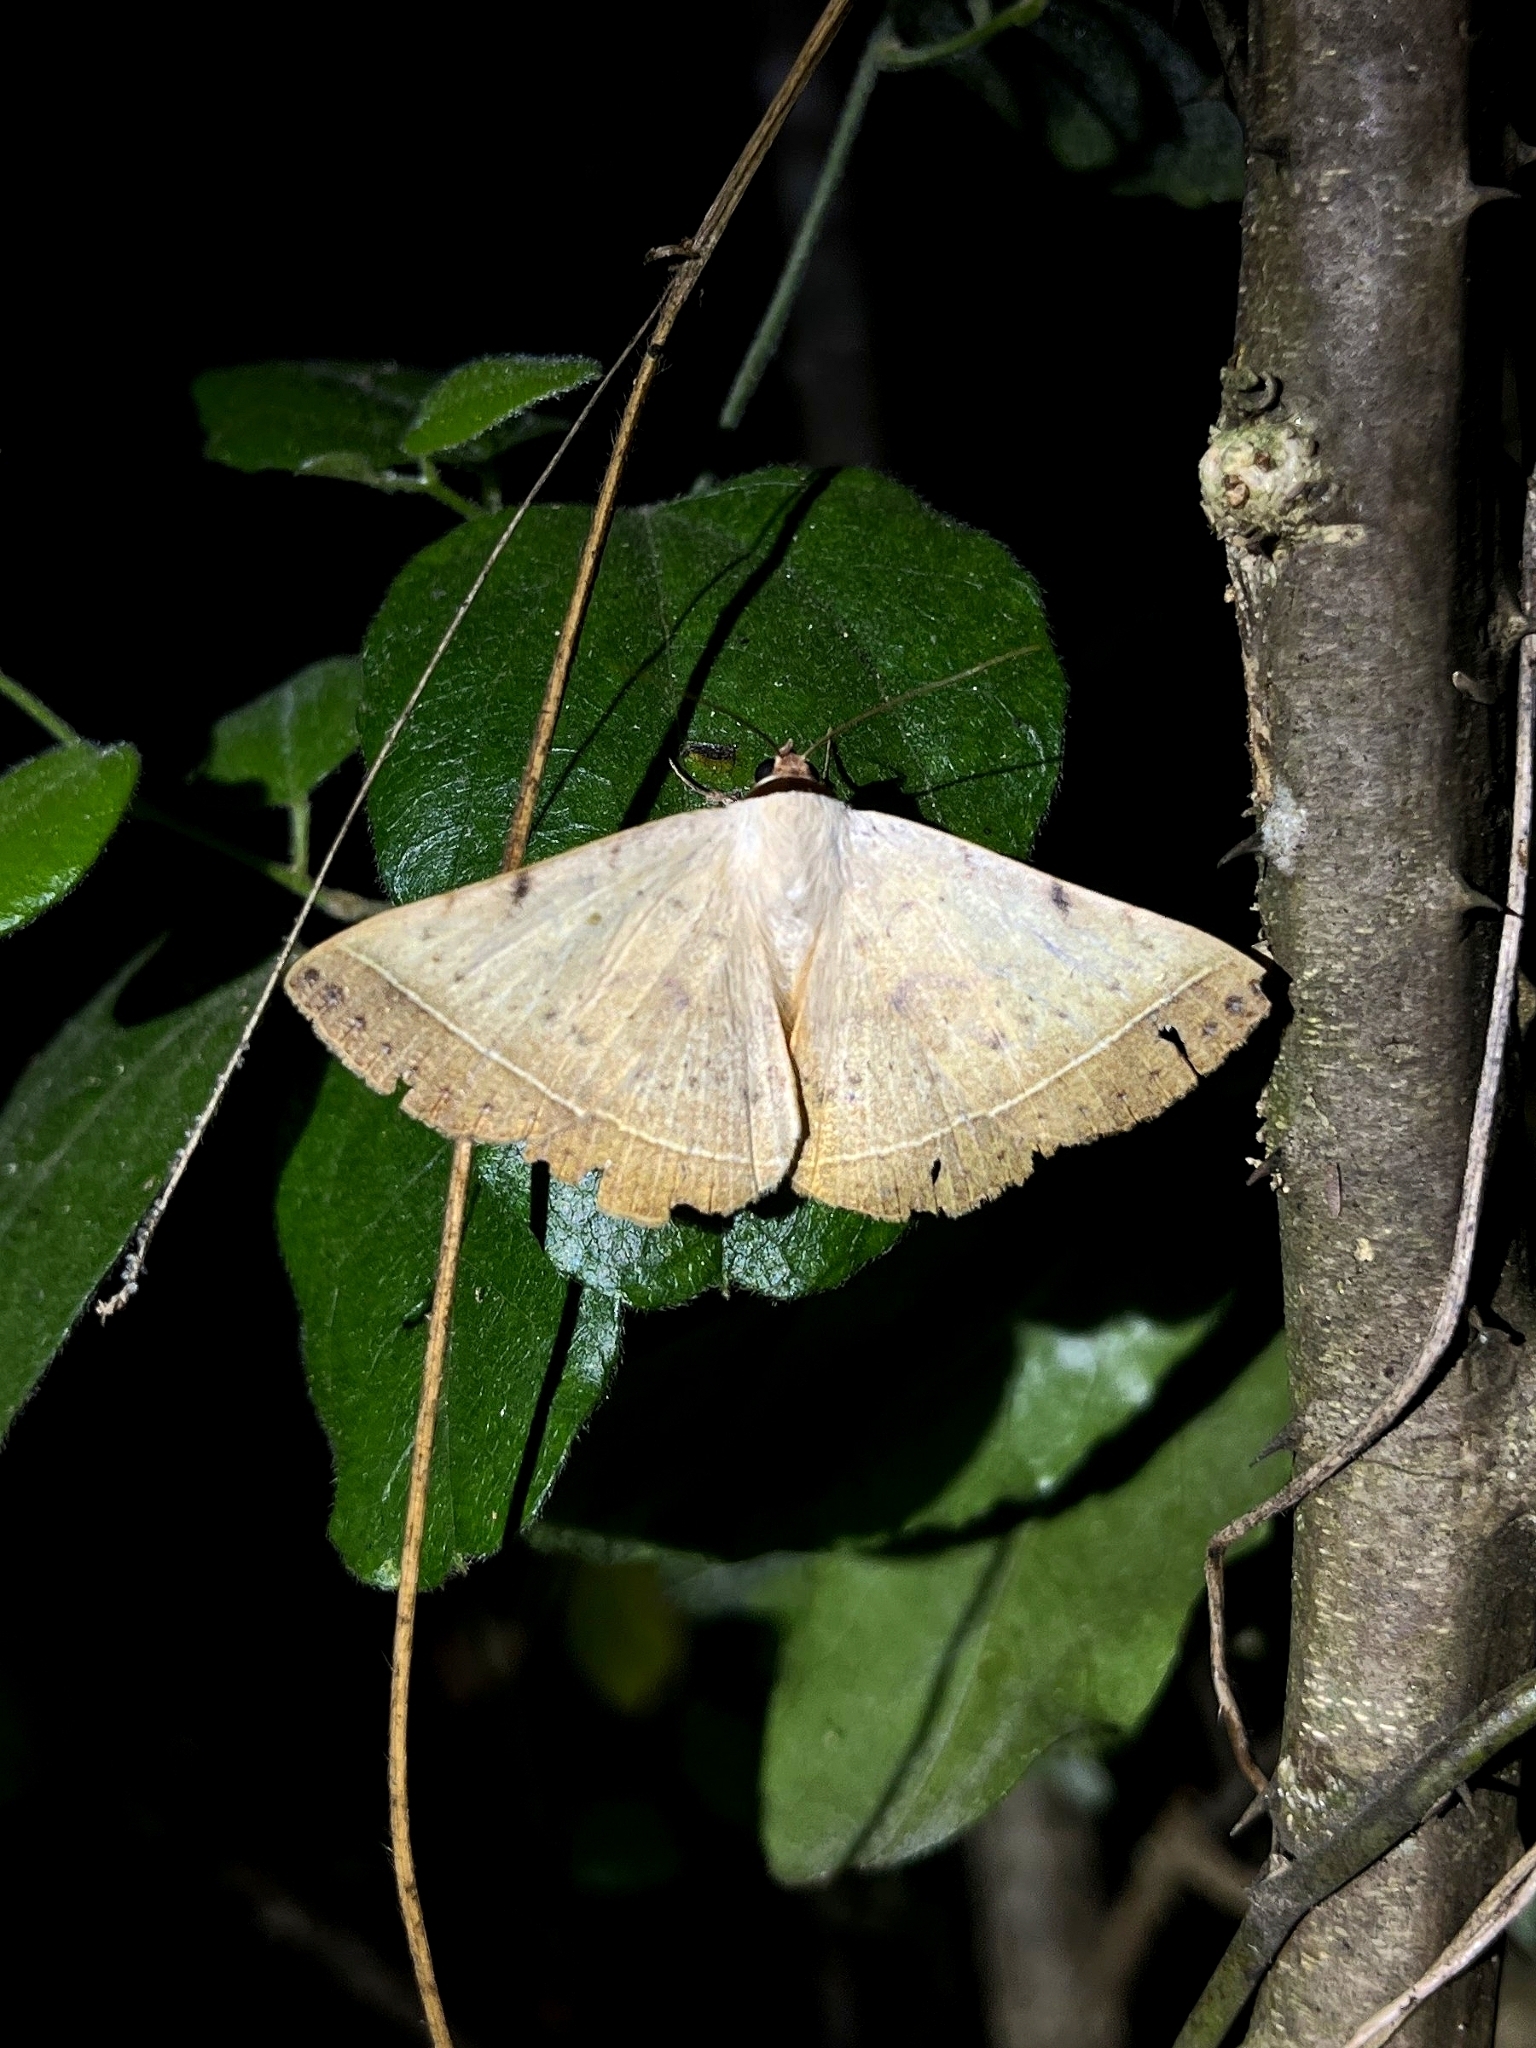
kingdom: Animalia
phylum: Arthropoda
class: Insecta
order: Lepidoptera
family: Erebidae
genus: Hypopyra
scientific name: Hypopyra meridionalis
